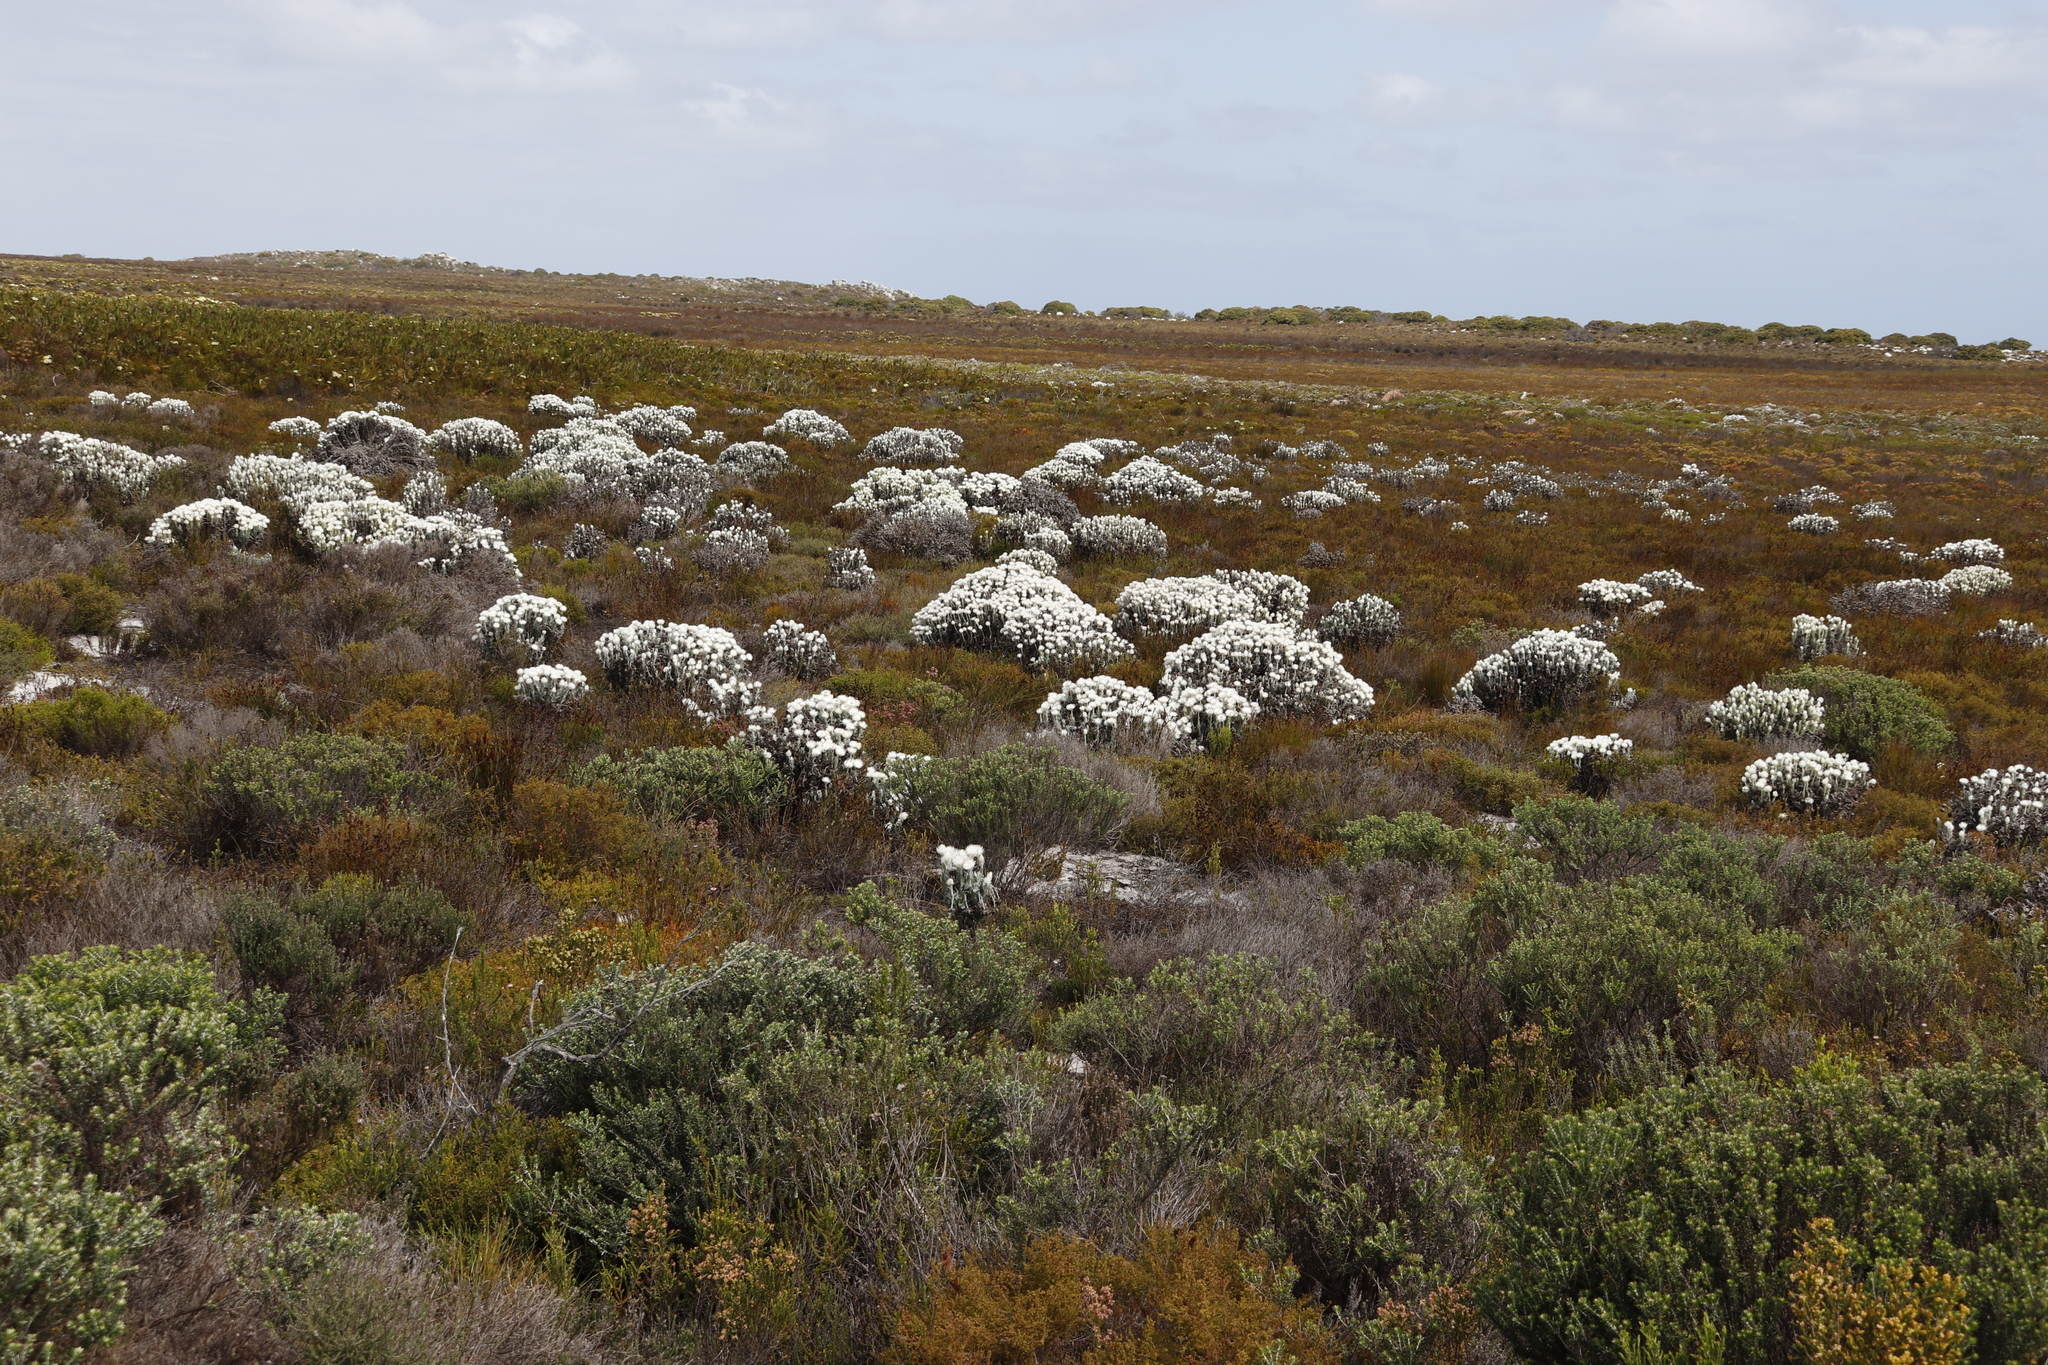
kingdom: Plantae
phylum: Tracheophyta
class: Magnoliopsida
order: Asterales
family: Asteraceae
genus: Syncarpha
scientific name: Syncarpha vestita
